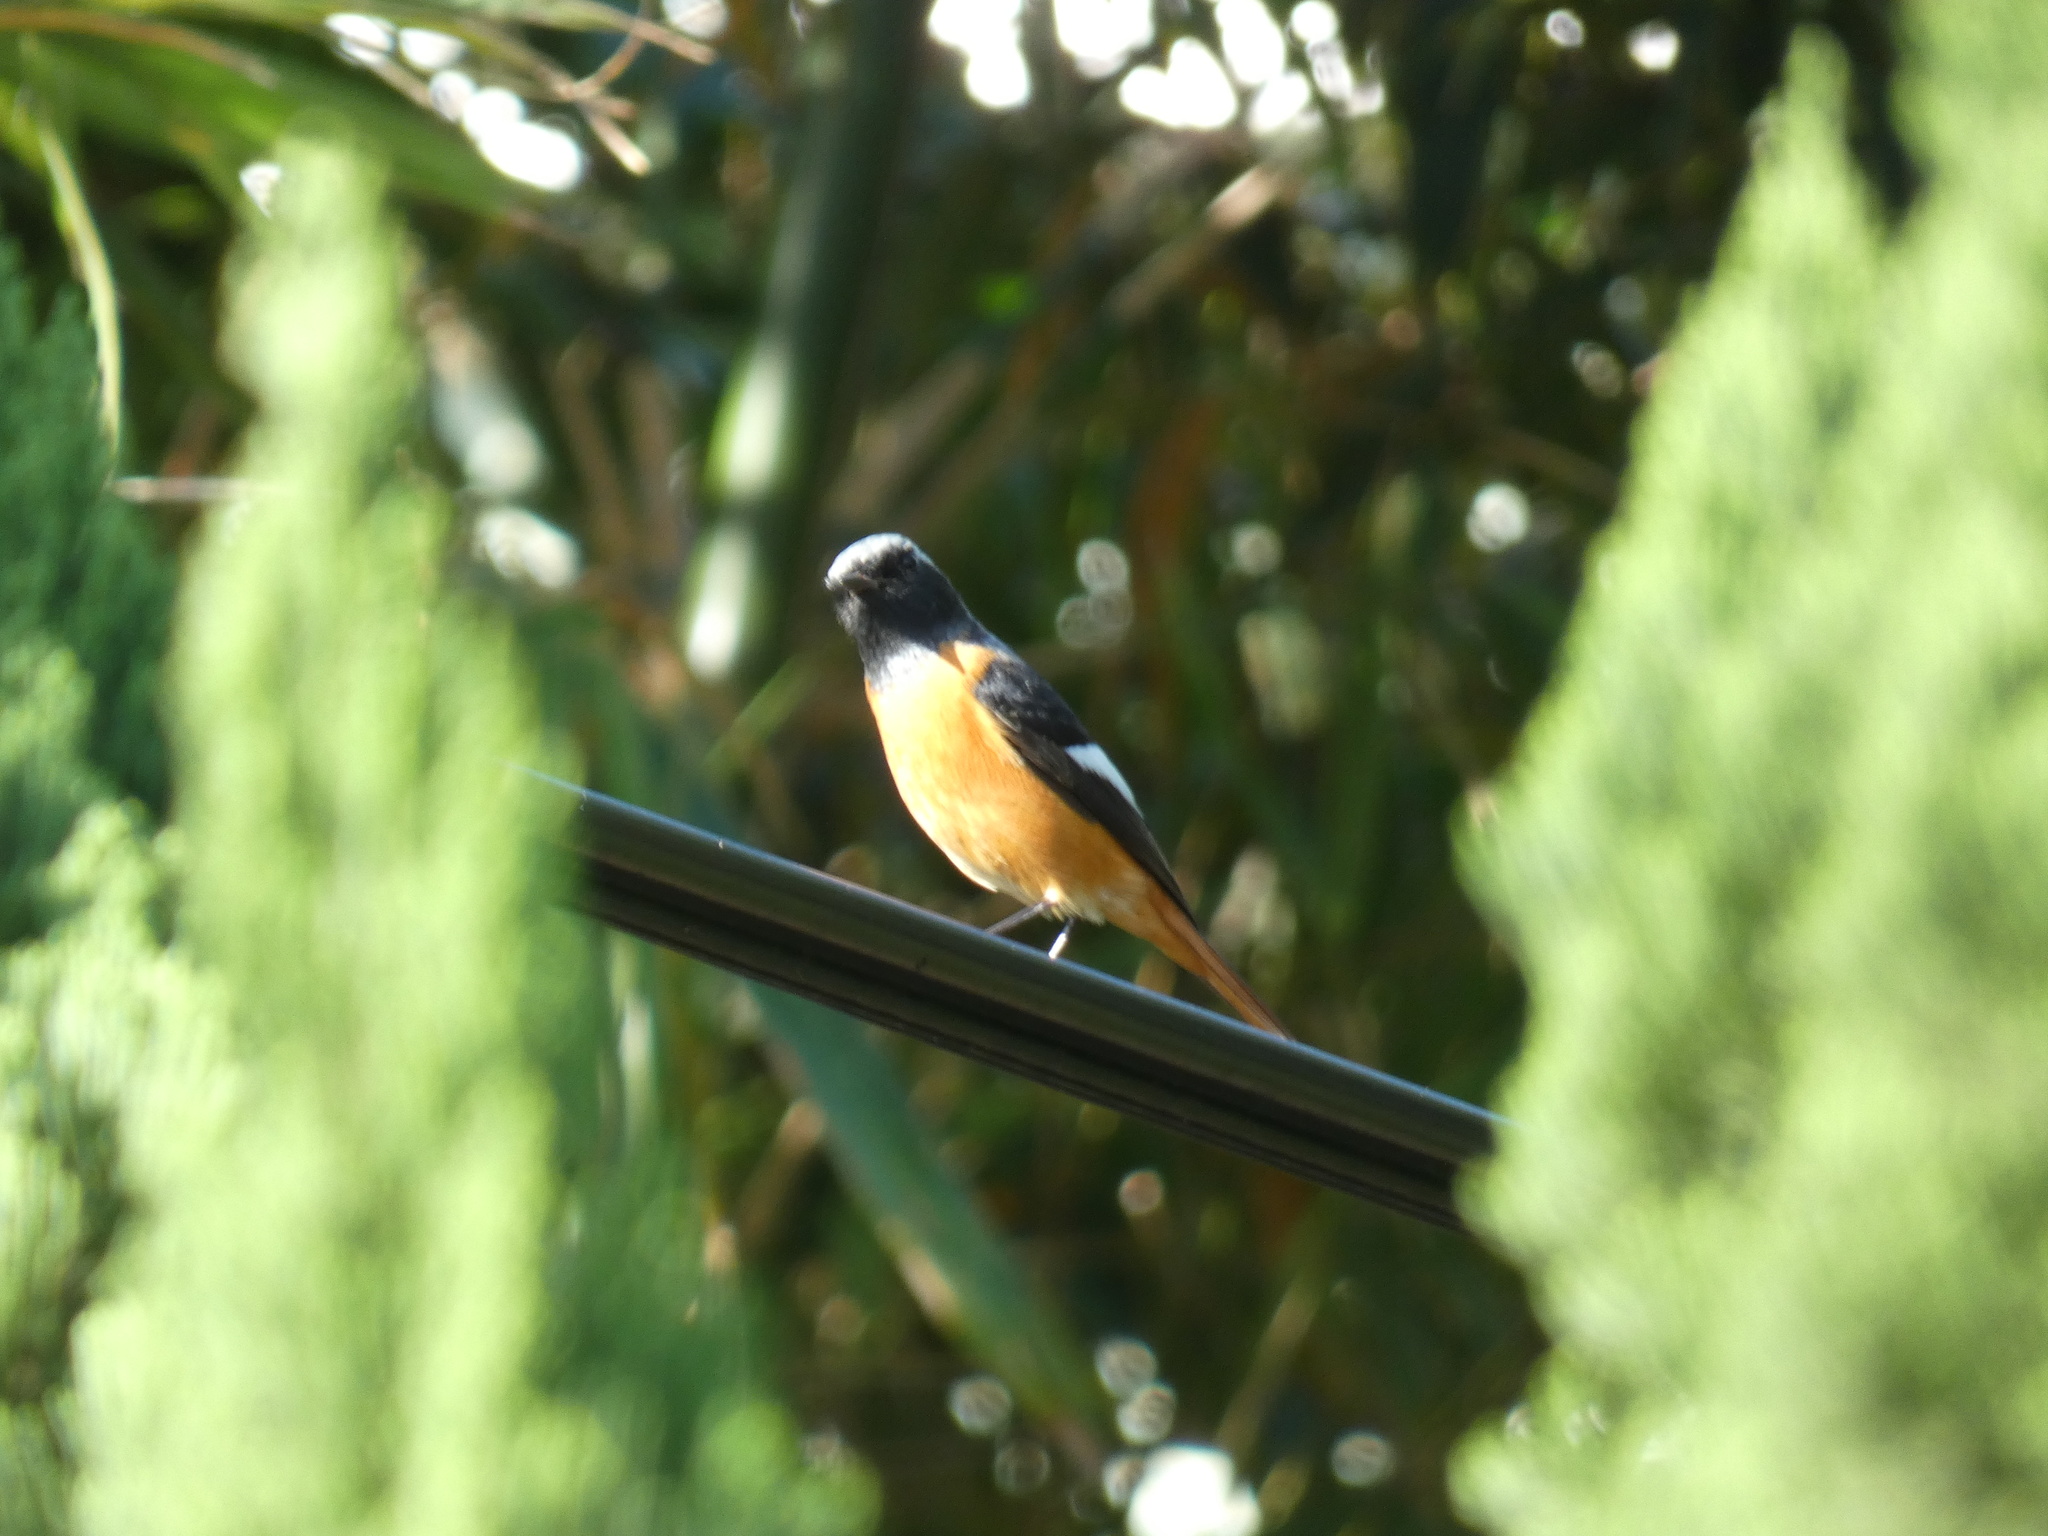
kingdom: Animalia
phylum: Chordata
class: Aves
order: Passeriformes
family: Muscicapidae
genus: Phoenicurus
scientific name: Phoenicurus auroreus
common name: Daurian redstart
